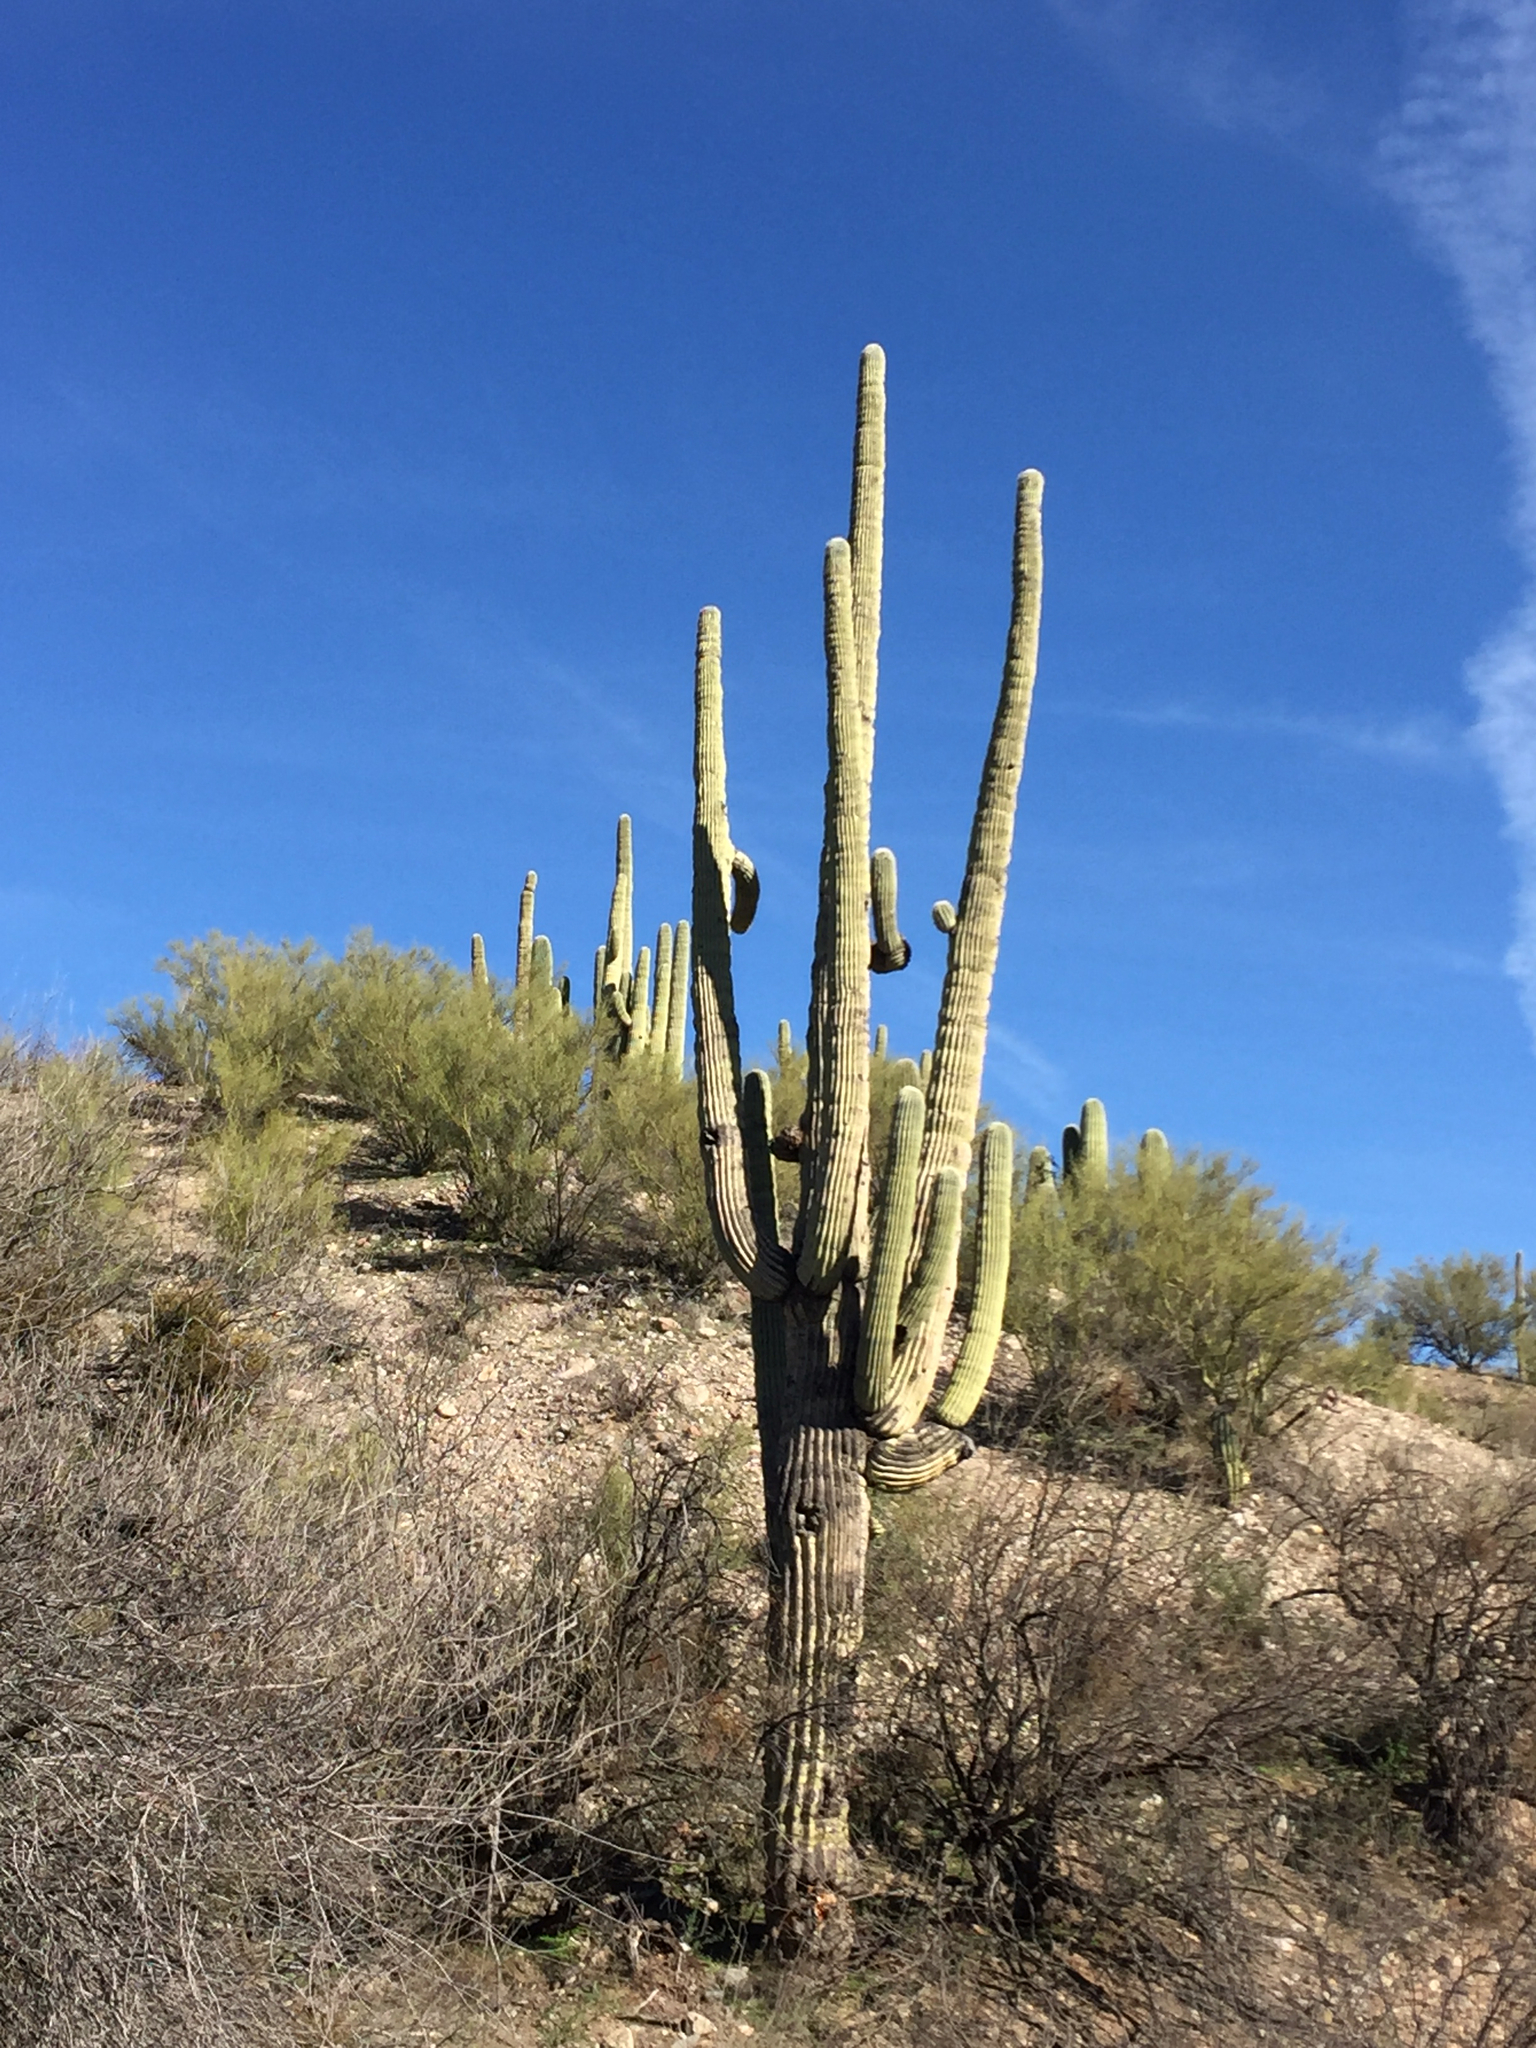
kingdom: Plantae
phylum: Tracheophyta
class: Magnoliopsida
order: Caryophyllales
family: Cactaceae
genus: Carnegiea
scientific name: Carnegiea gigantea
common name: Saguaro
